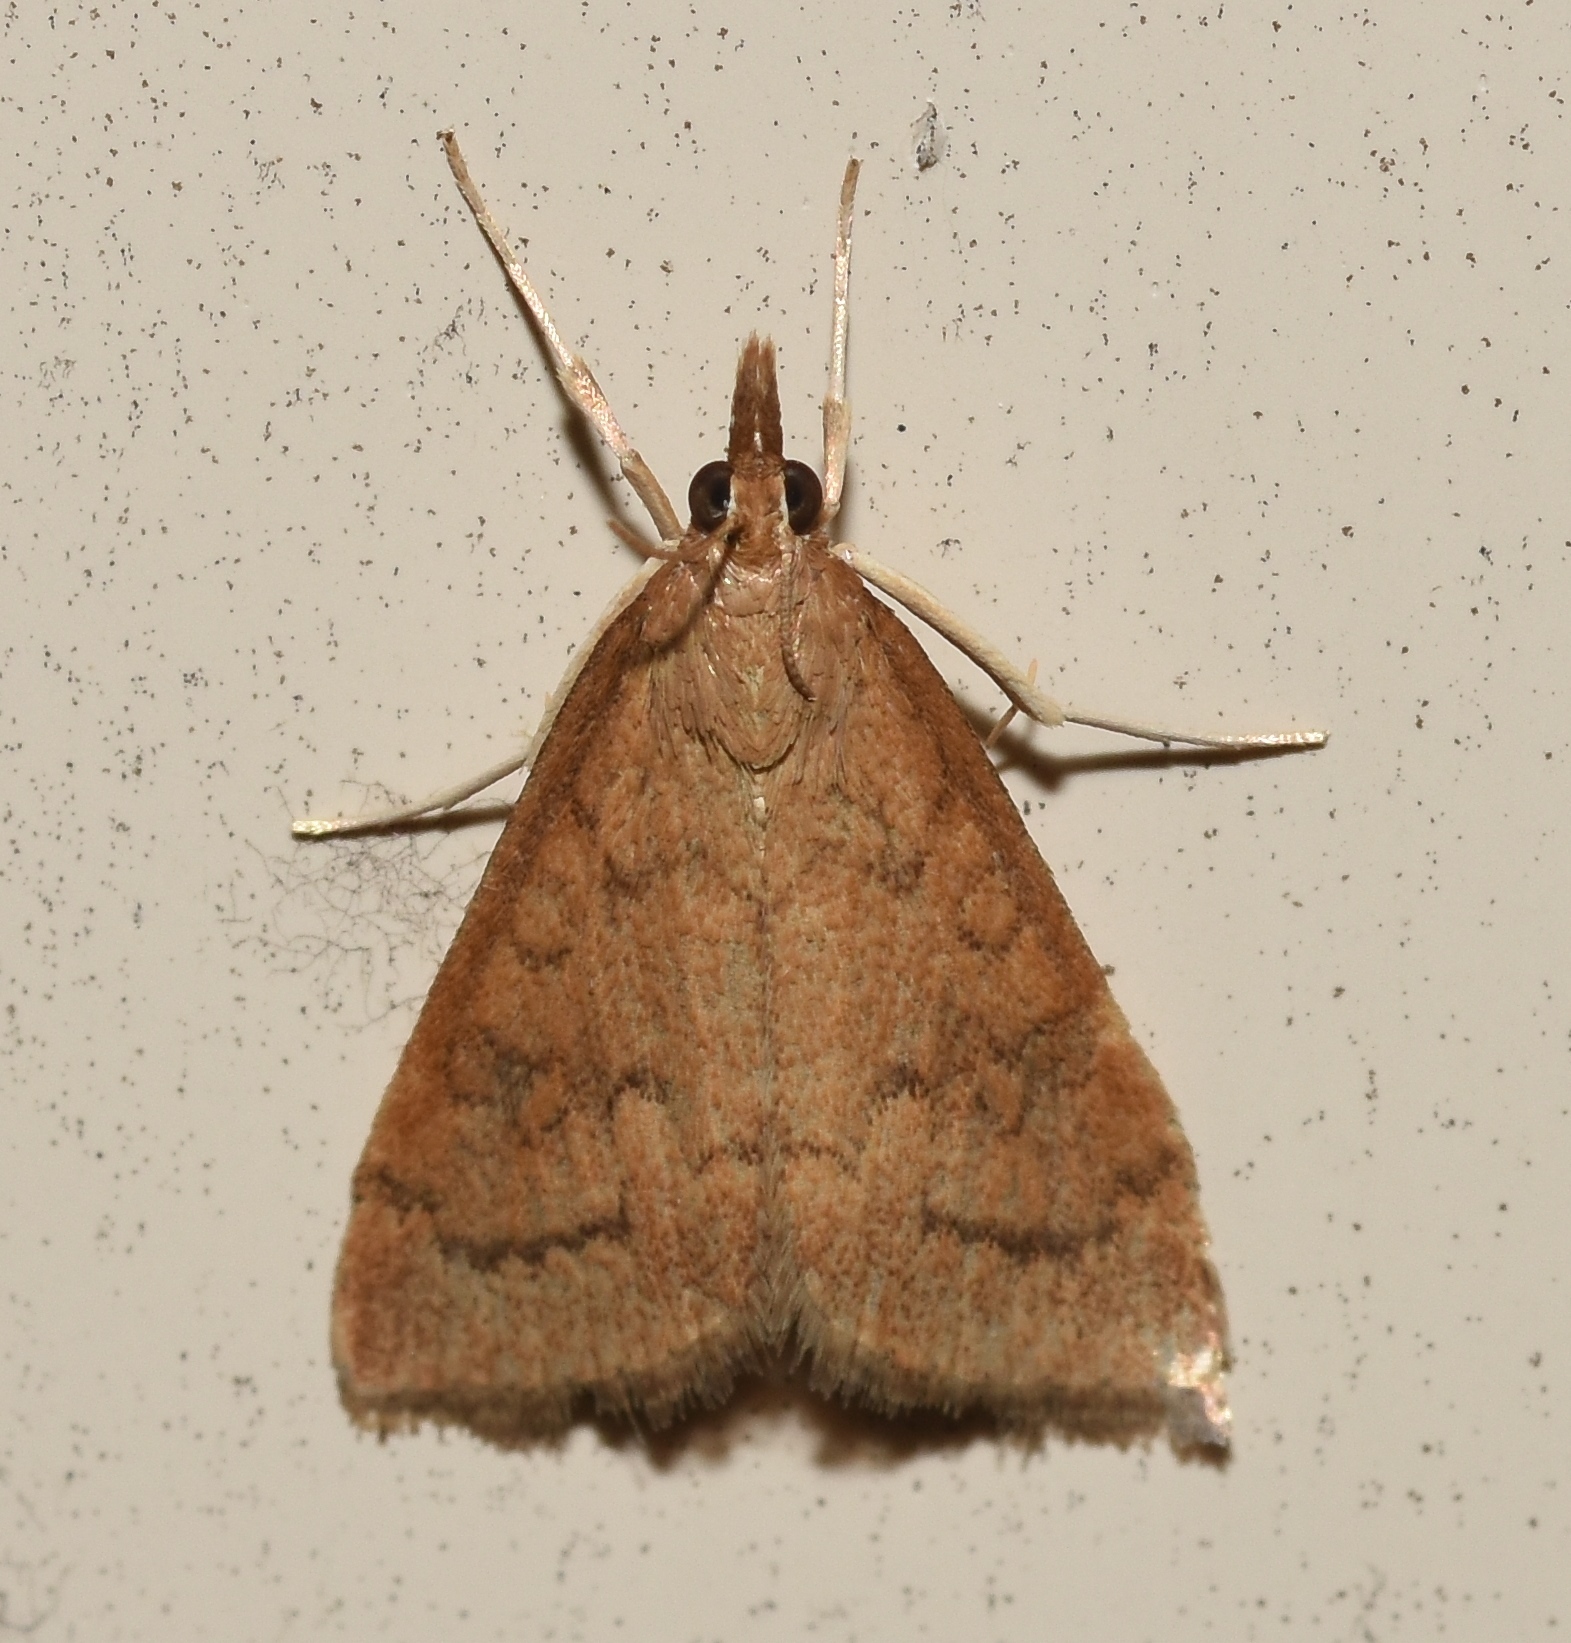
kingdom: Animalia
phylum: Arthropoda
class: Insecta
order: Lepidoptera
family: Crambidae
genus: Udea
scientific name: Udea rubigalis
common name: Celery leaftier moth
